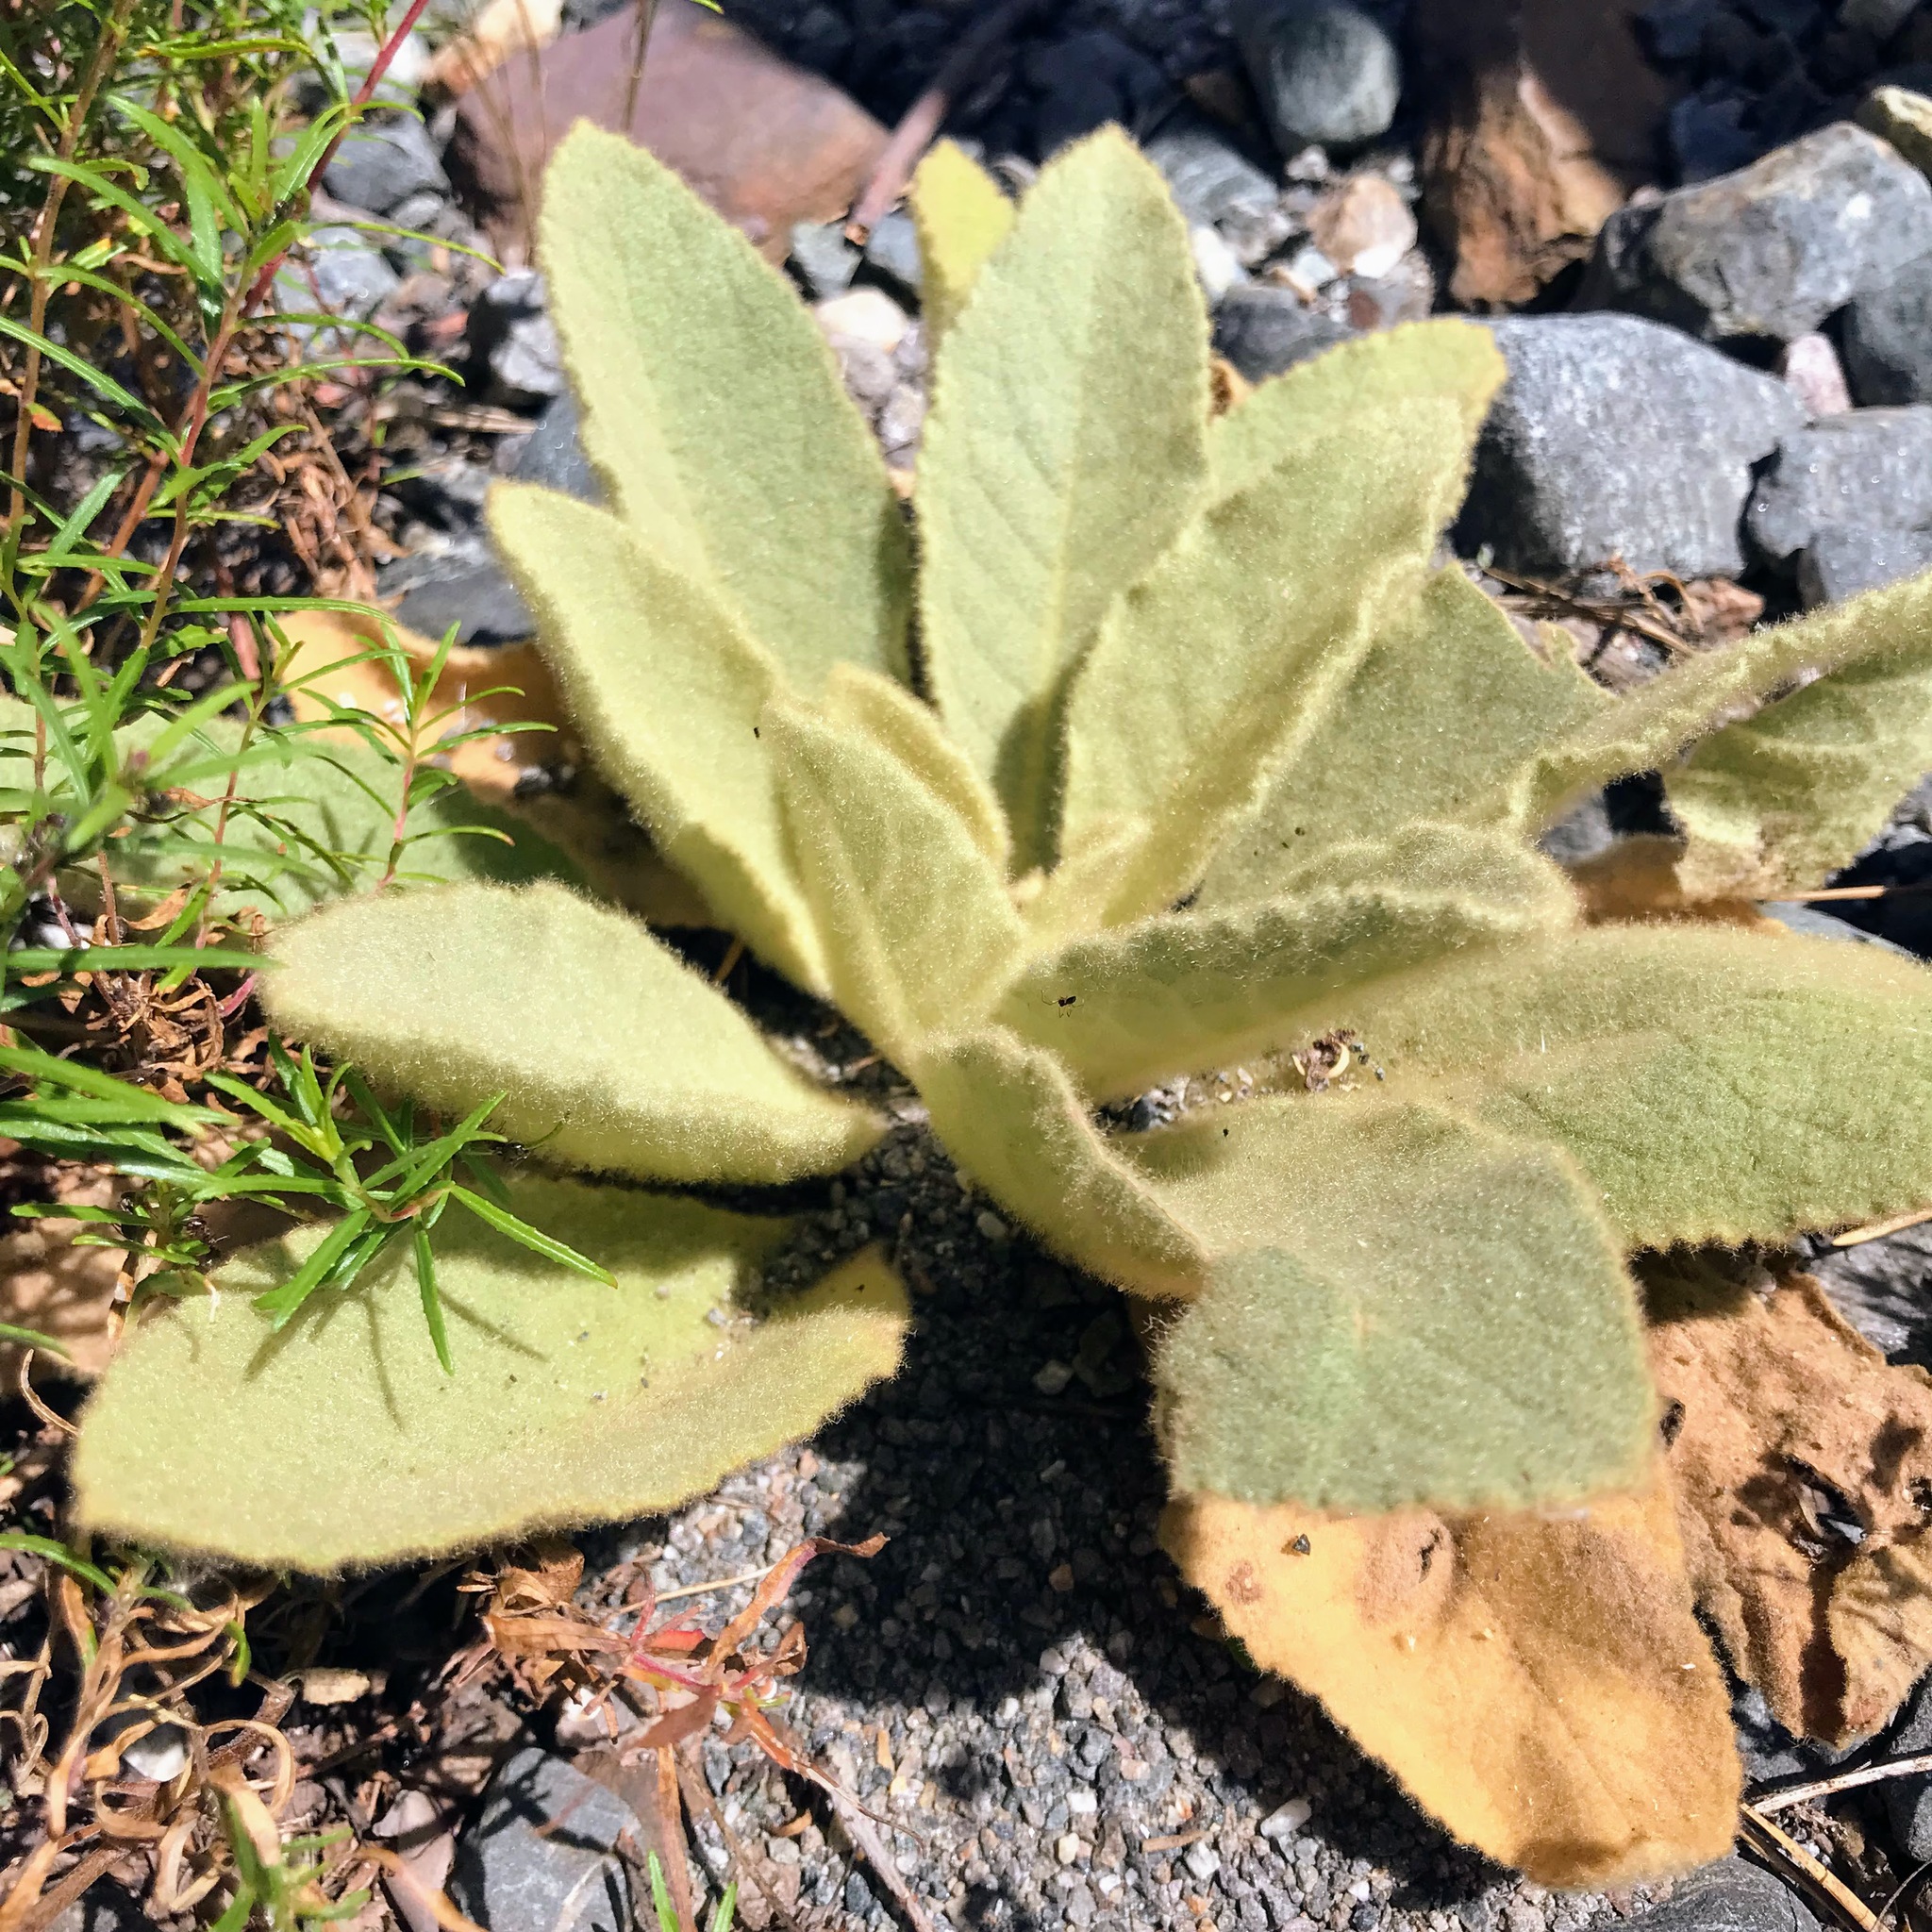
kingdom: Plantae
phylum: Tracheophyta
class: Magnoliopsida
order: Lamiales
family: Scrophulariaceae
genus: Verbascum
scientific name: Verbascum thapsus
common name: Common mullein
